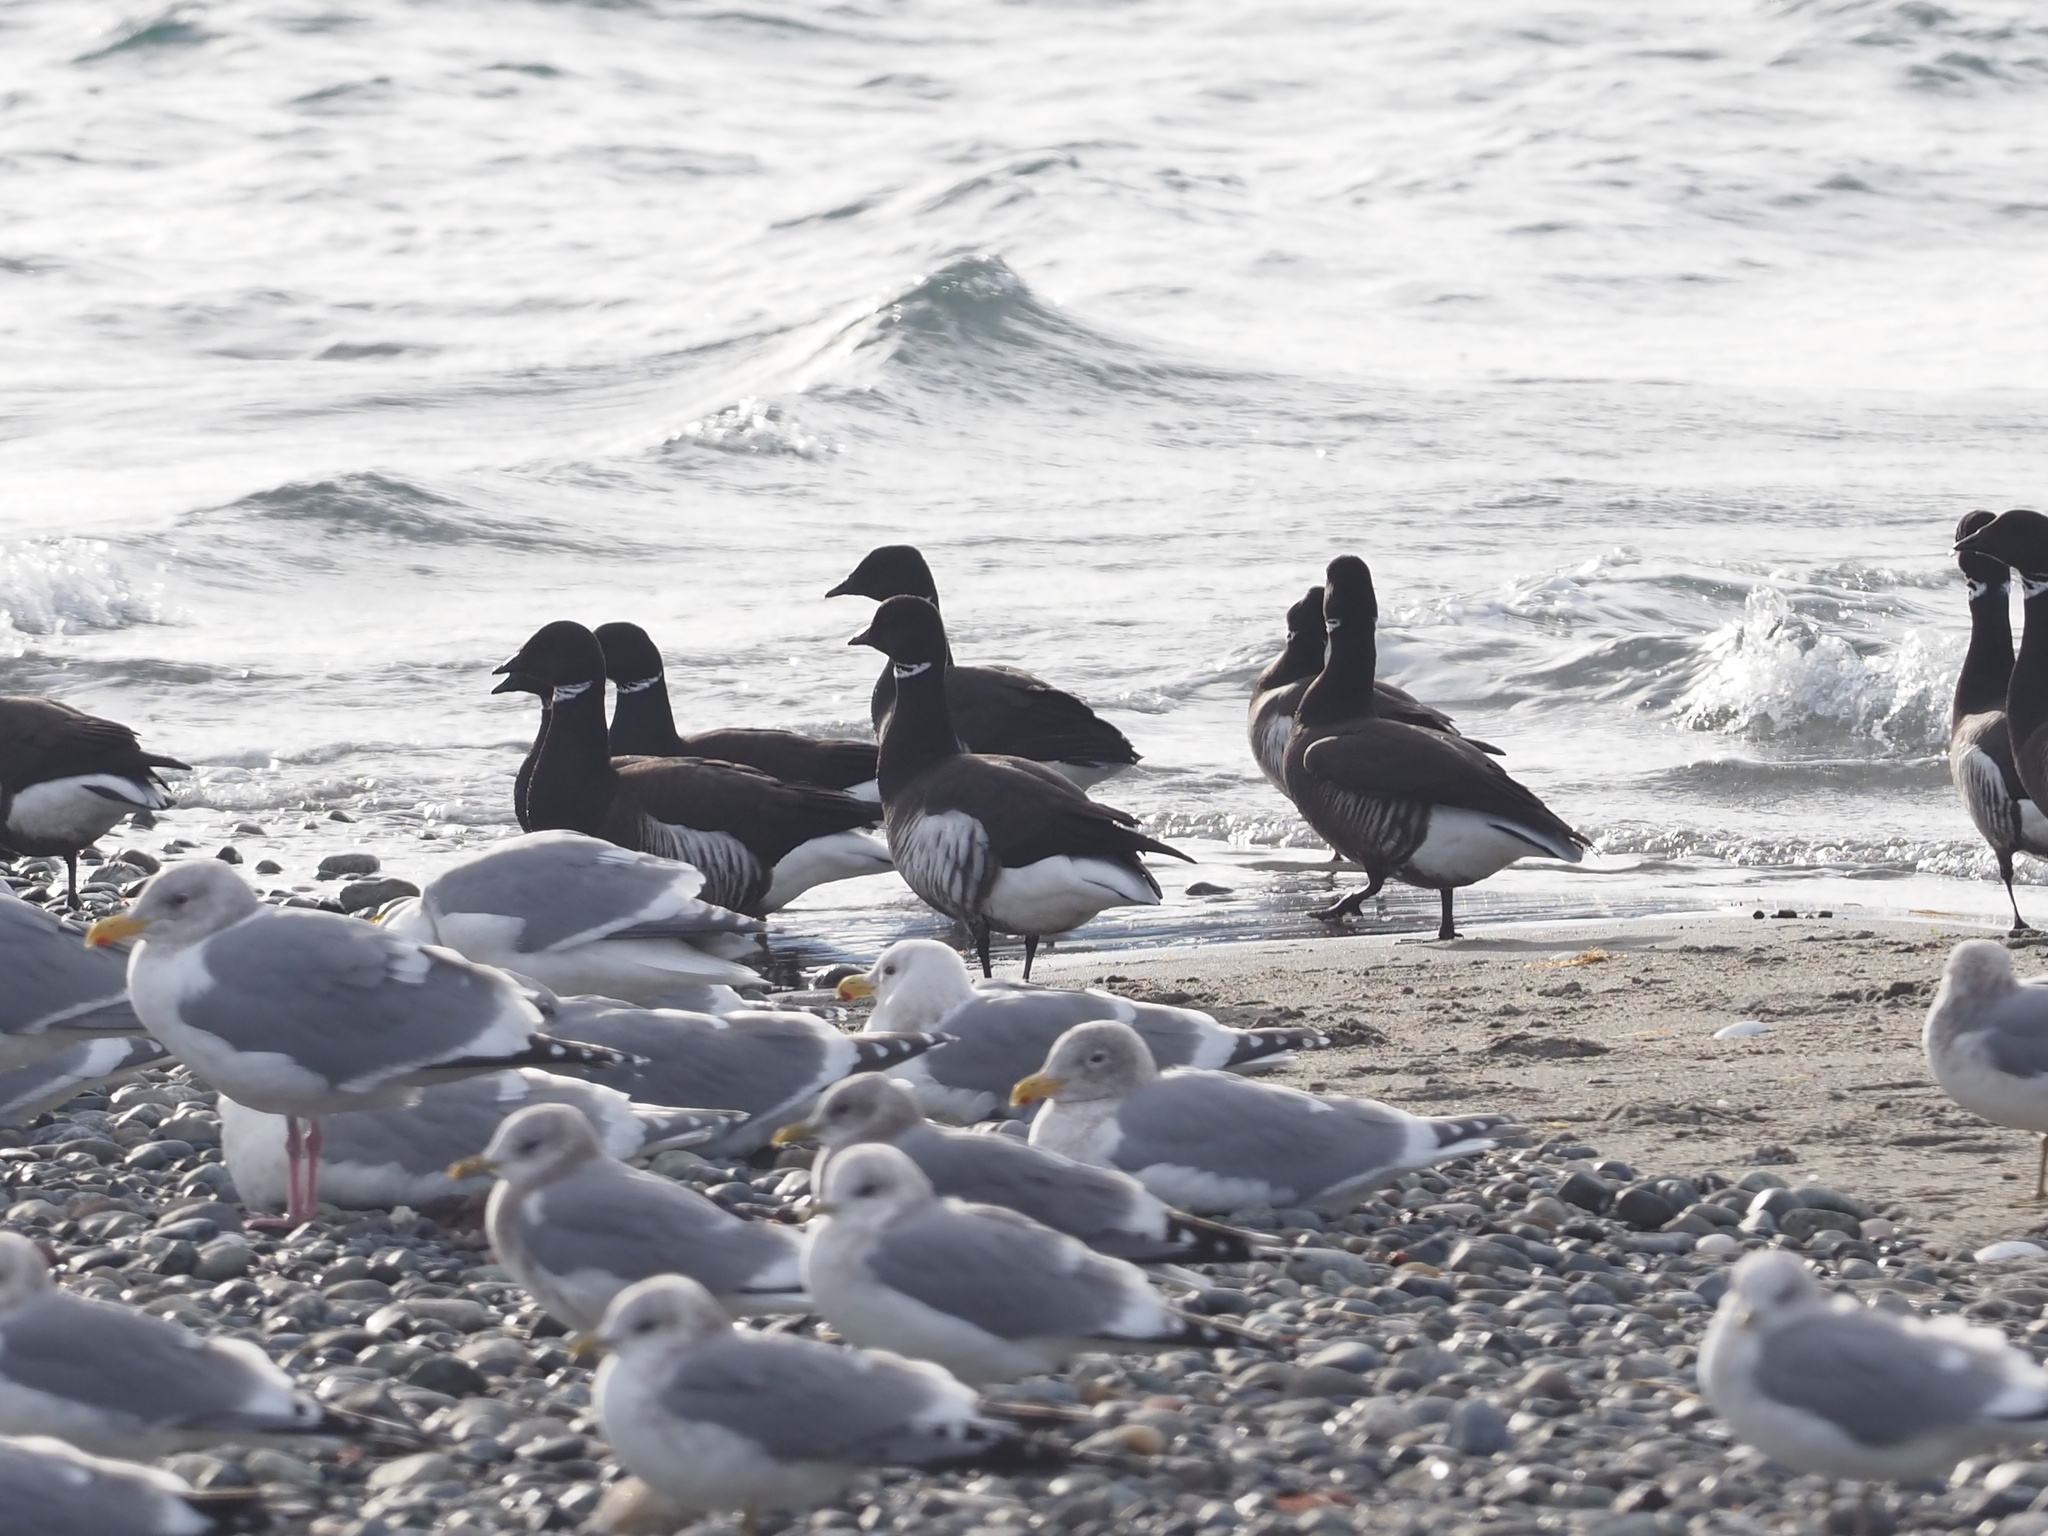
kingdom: Animalia
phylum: Chordata
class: Aves
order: Anseriformes
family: Anatidae
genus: Branta
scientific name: Branta bernicla
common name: Brant goose
